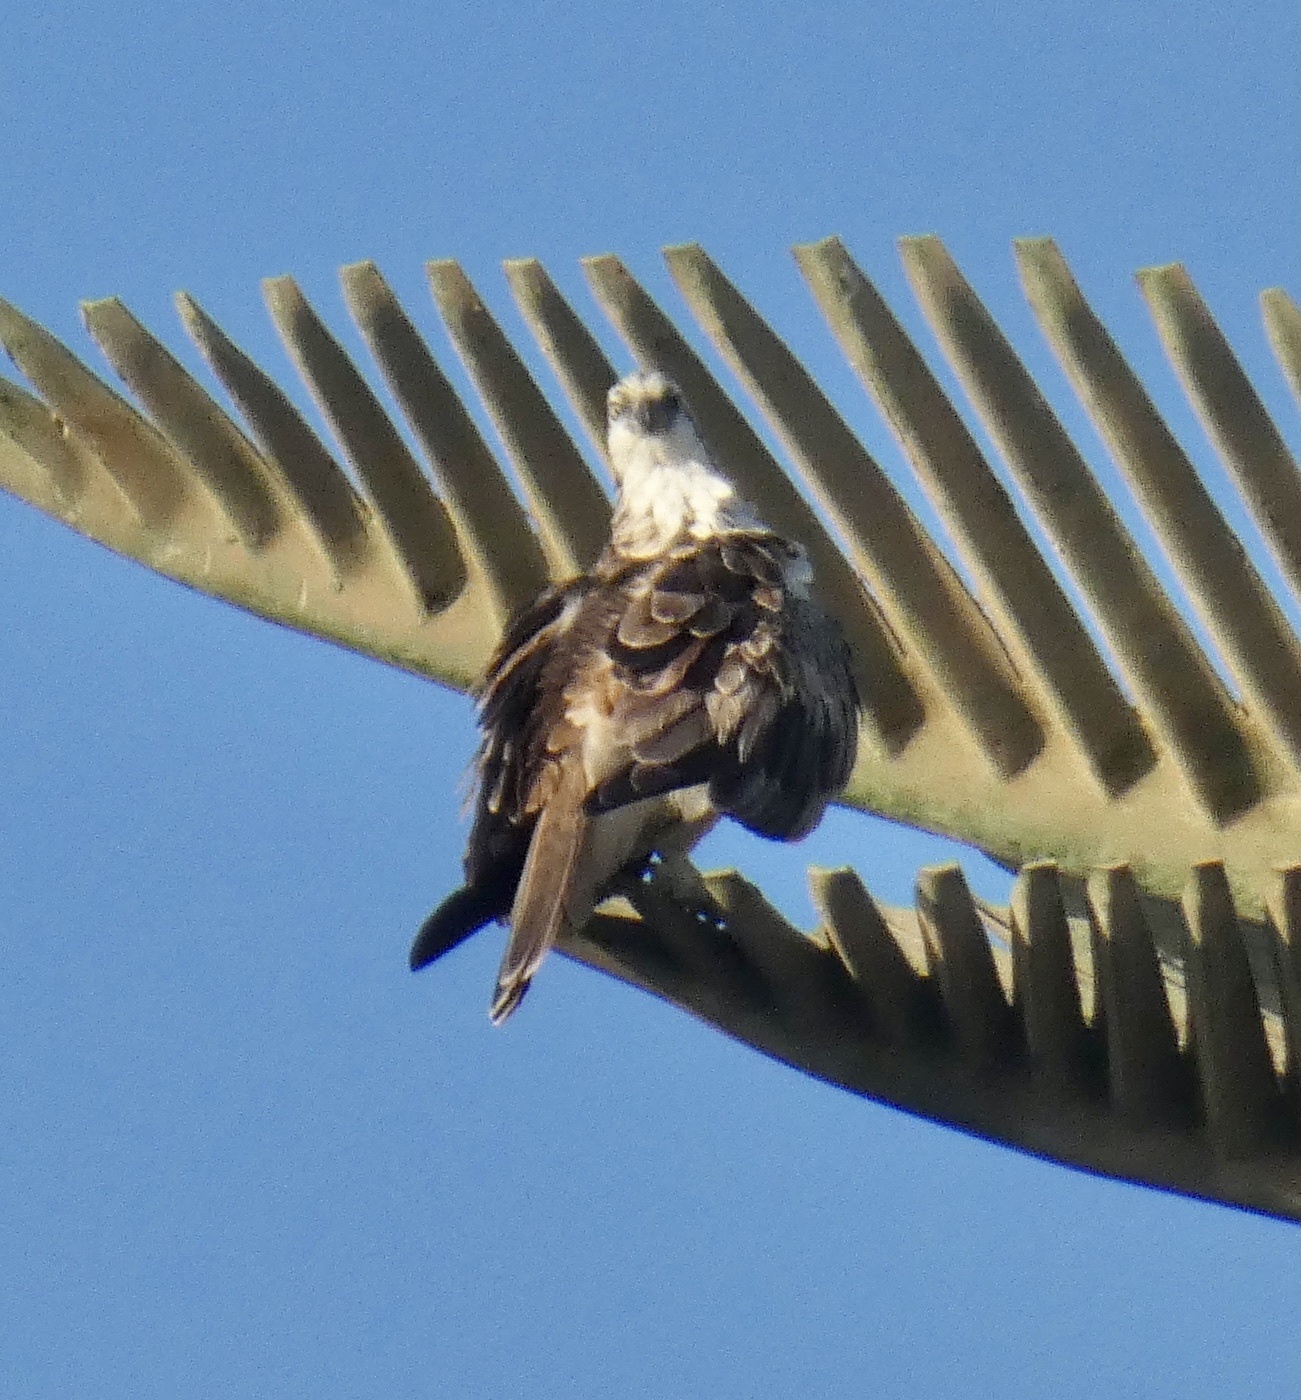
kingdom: Animalia
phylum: Chordata
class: Aves
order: Accipitriformes
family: Pandionidae
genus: Pandion
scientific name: Pandion haliaetus
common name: Osprey
